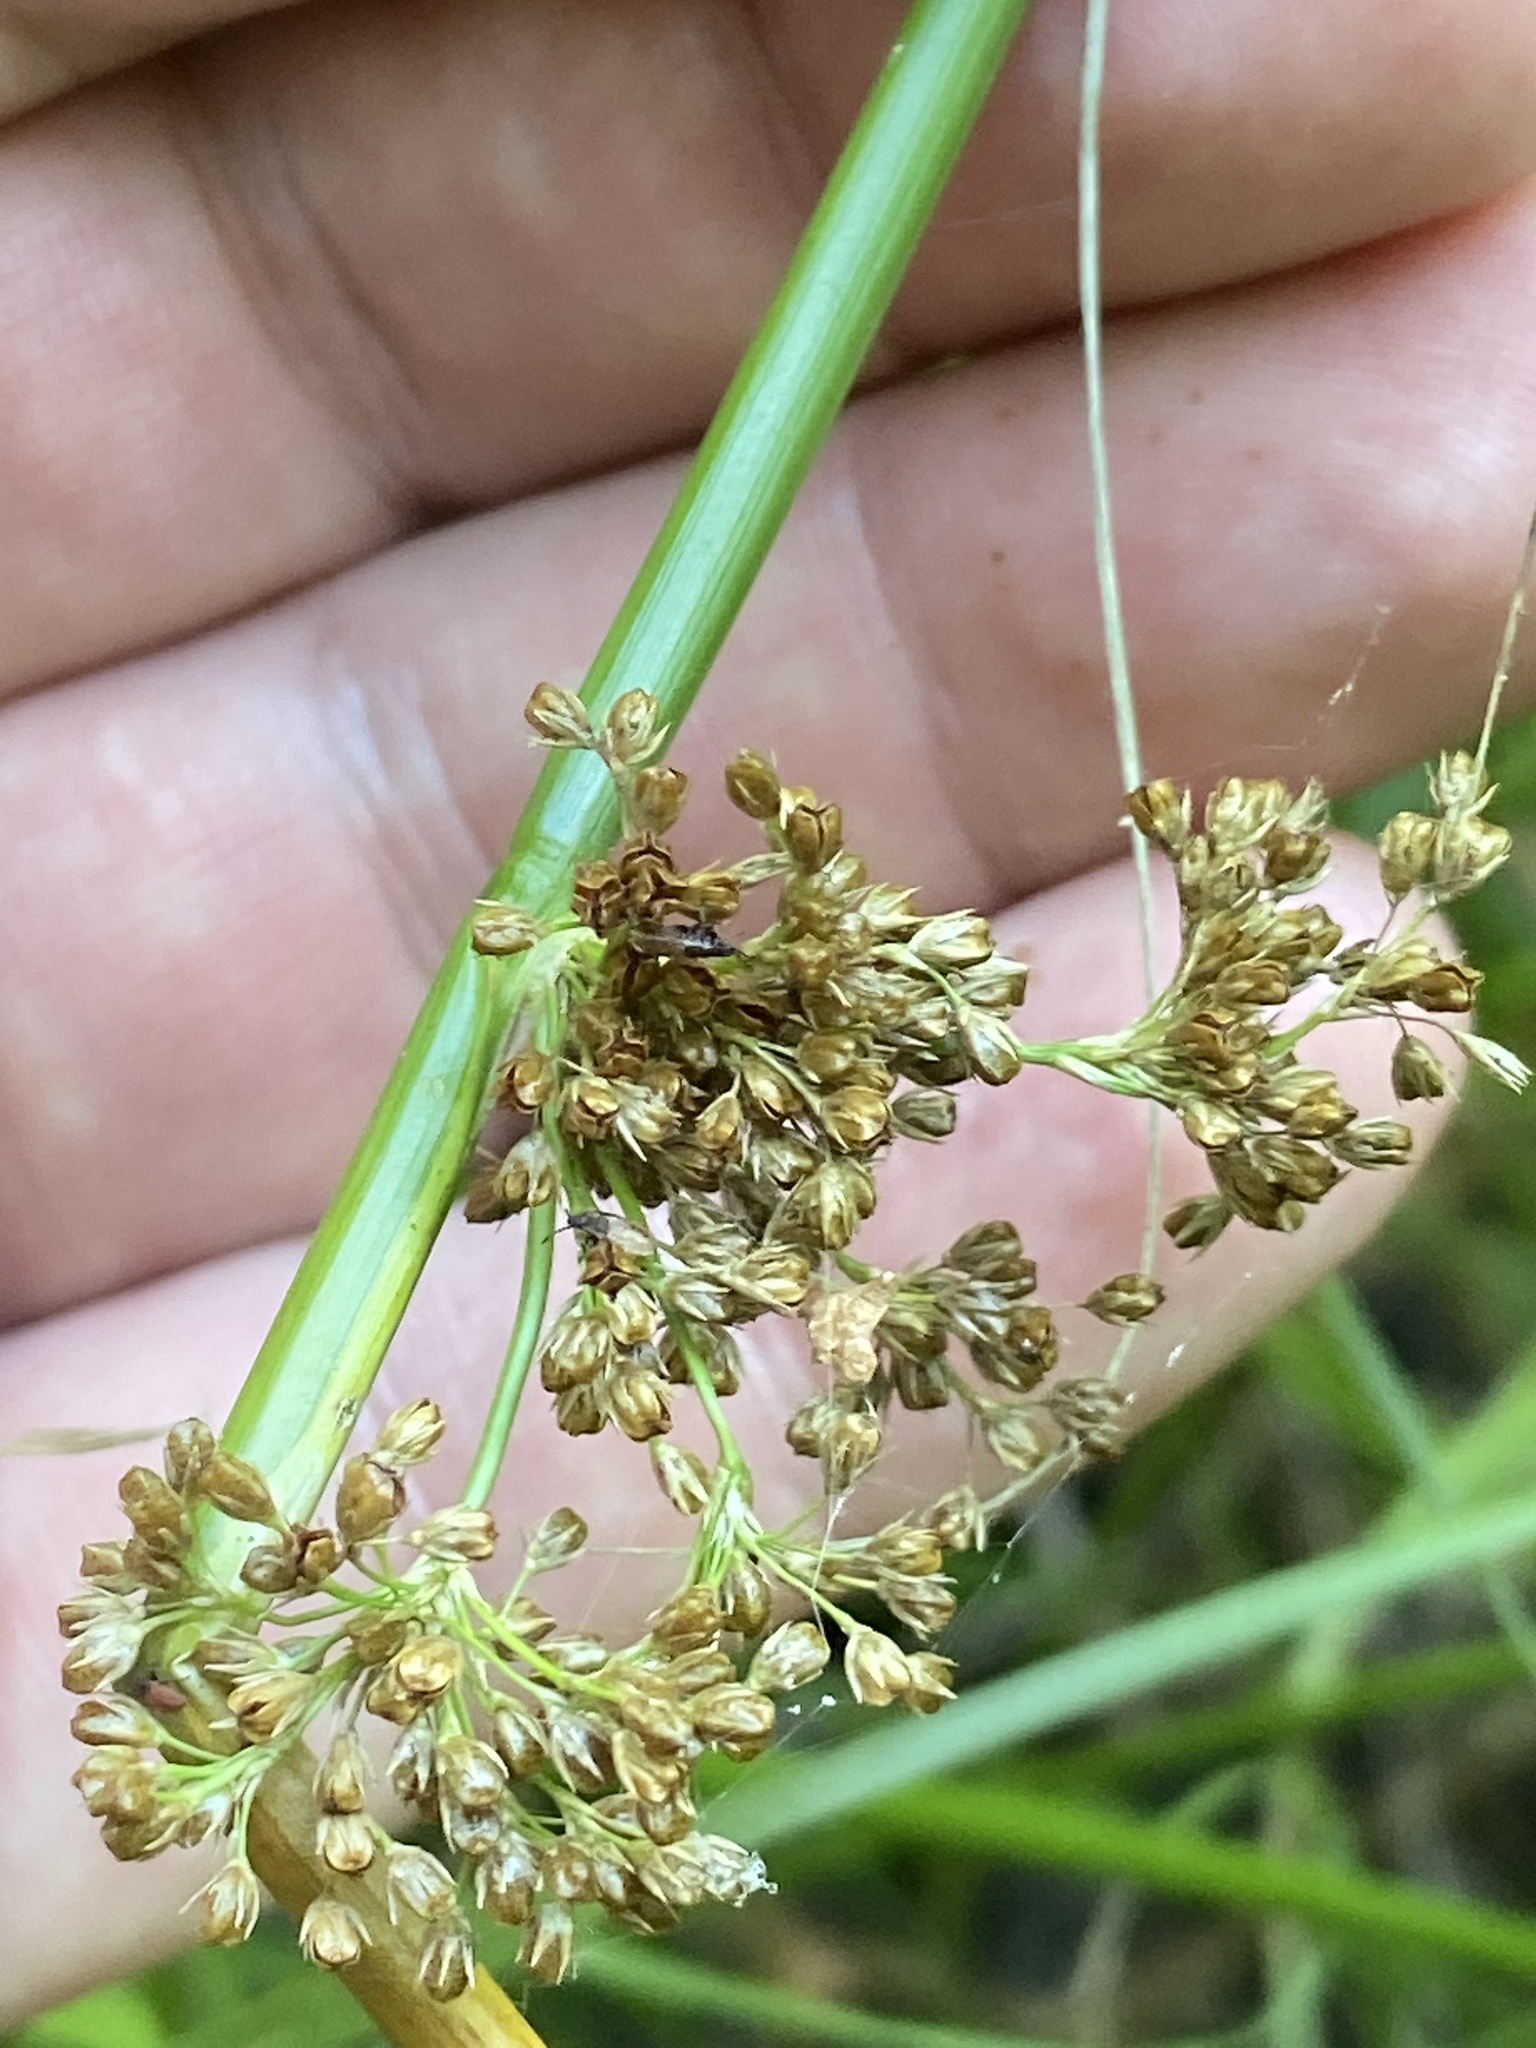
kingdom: Plantae
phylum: Tracheophyta
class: Liliopsida
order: Poales
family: Juncaceae
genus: Juncus
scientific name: Juncus effusus
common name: Soft rush
